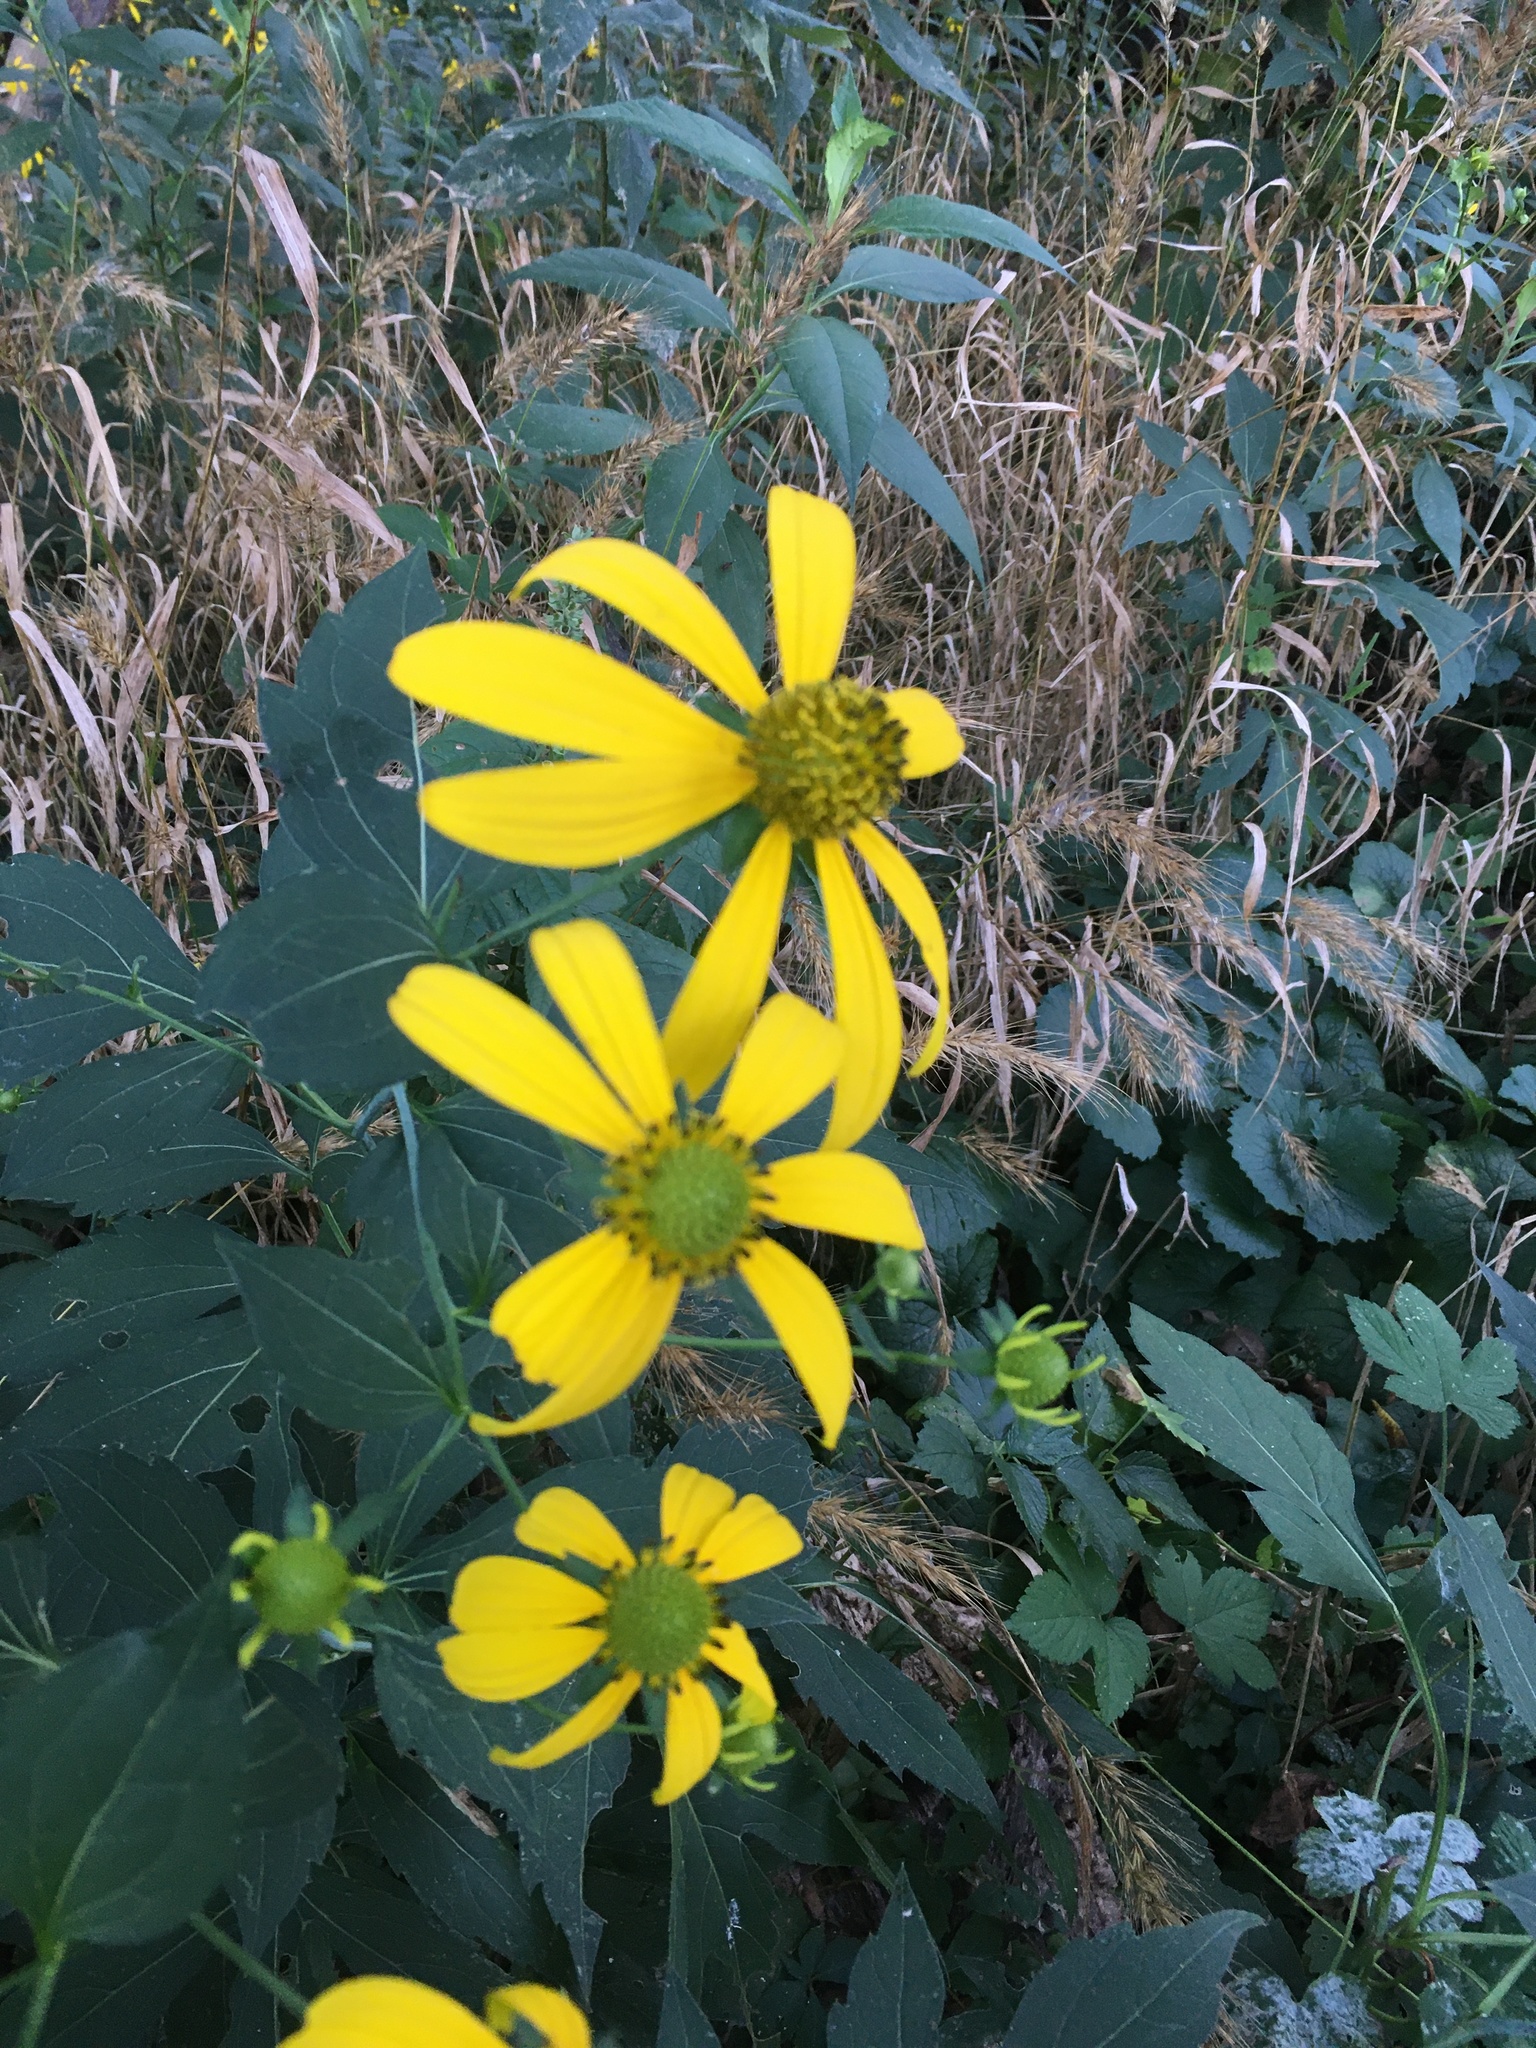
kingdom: Plantae
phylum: Tracheophyta
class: Magnoliopsida
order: Asterales
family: Asteraceae
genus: Rudbeckia
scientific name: Rudbeckia laciniata
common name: Coneflower
